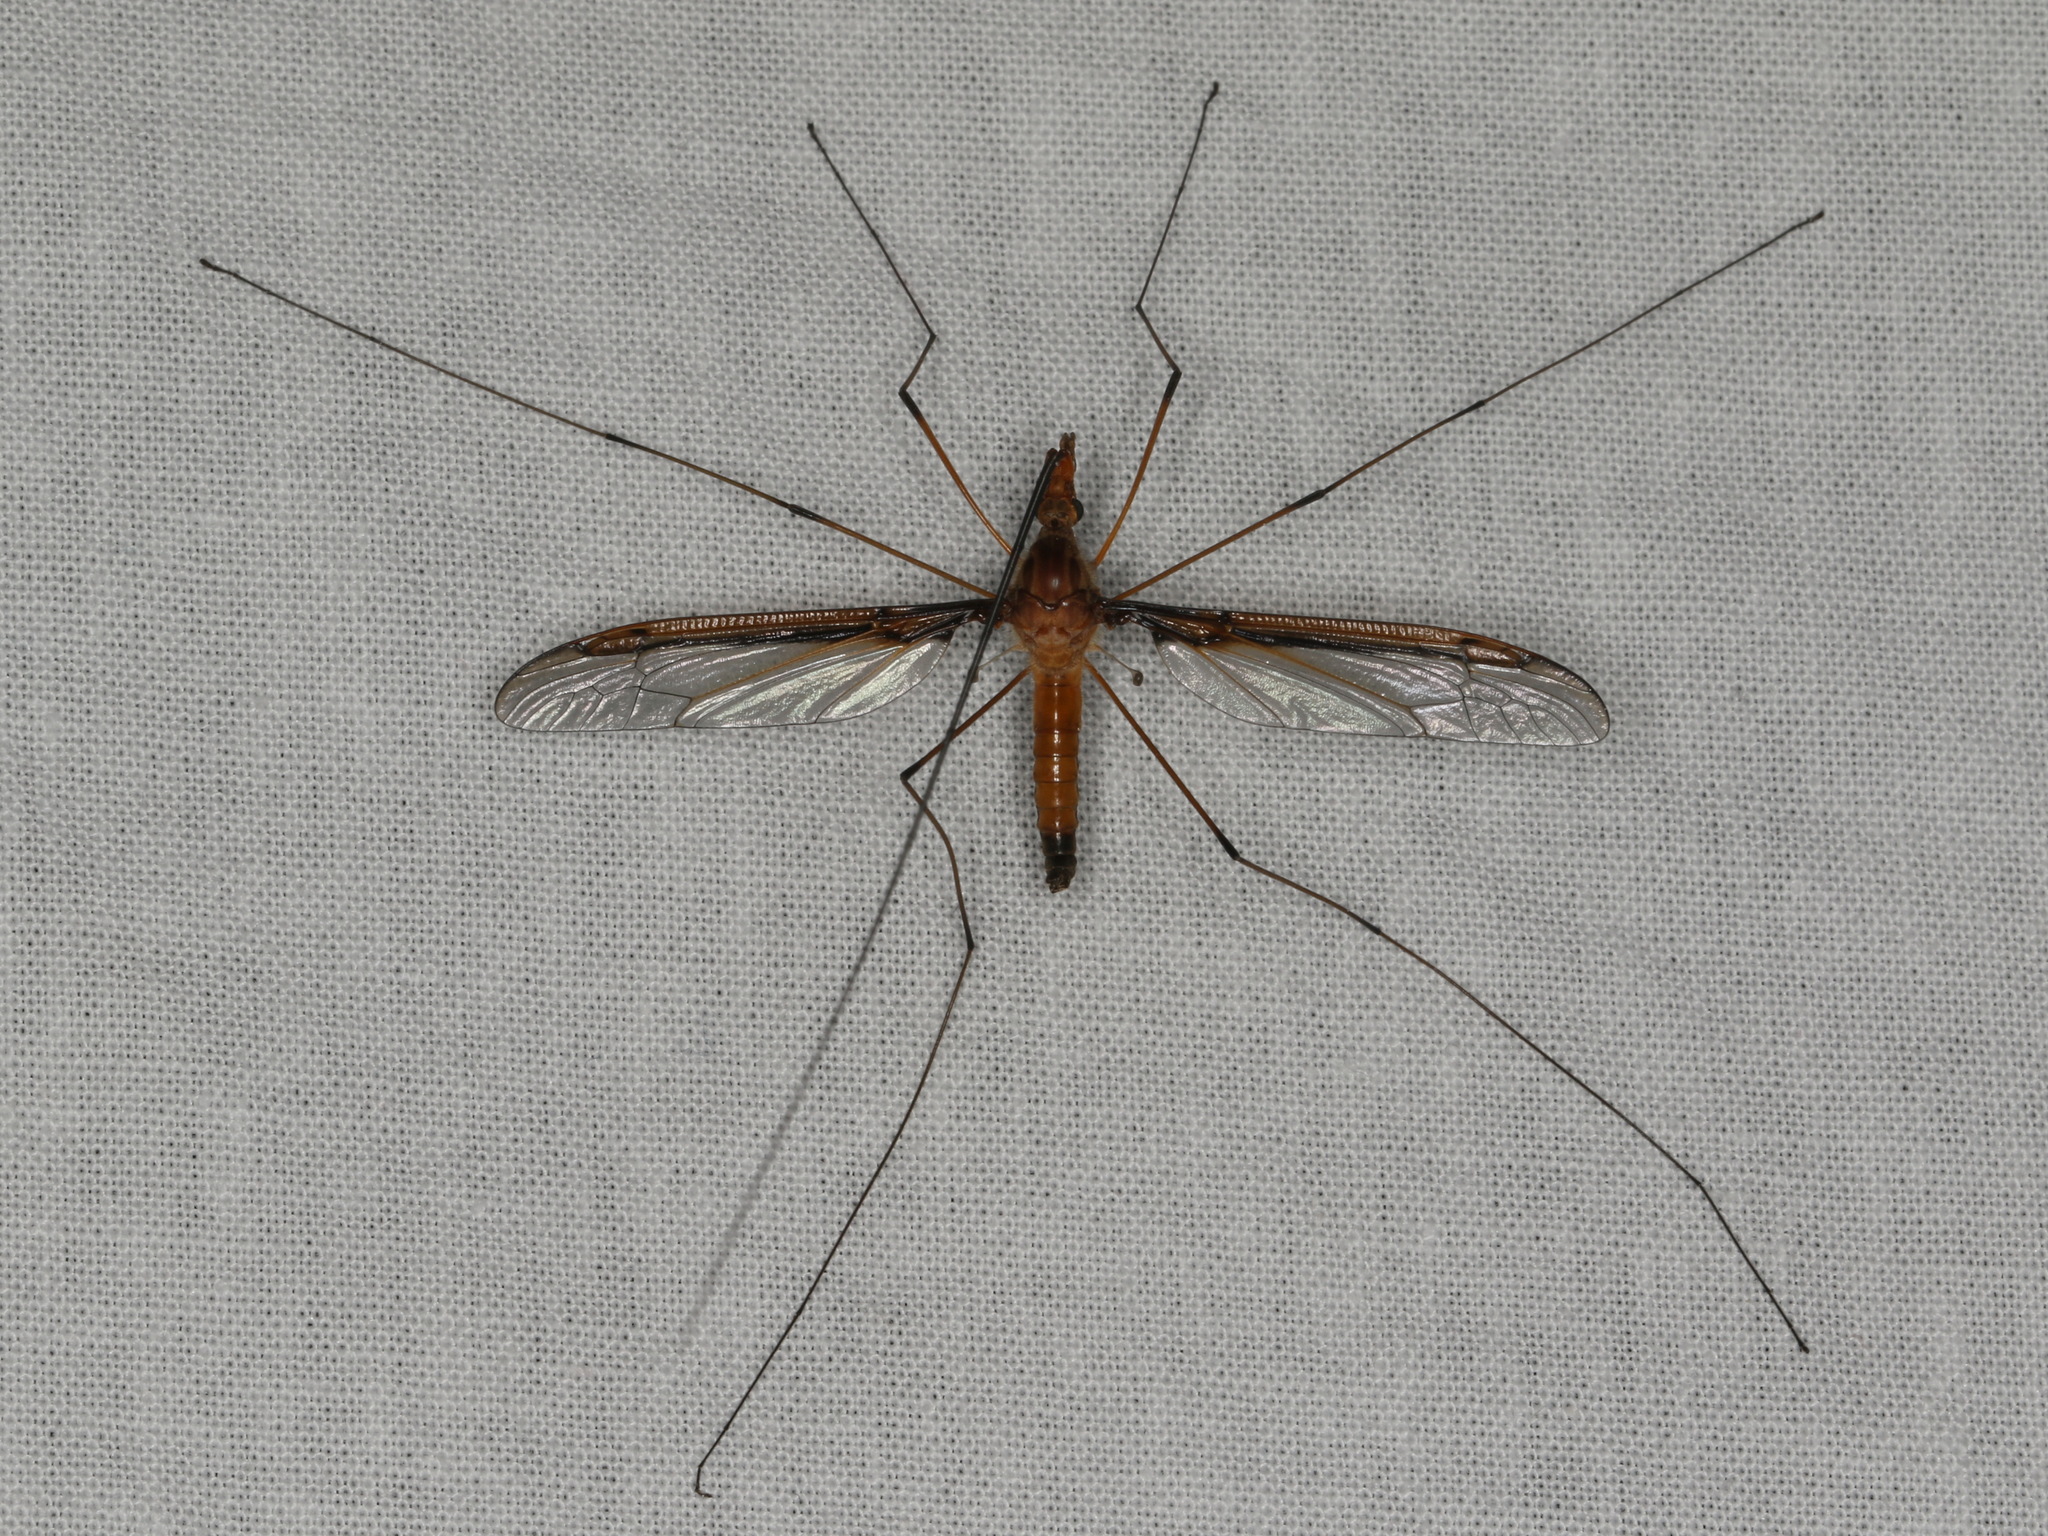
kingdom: Animalia
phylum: Arthropoda
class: Insecta
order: Diptera
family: Tipulidae
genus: Leptotarsus
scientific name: Leptotarsus costalis
